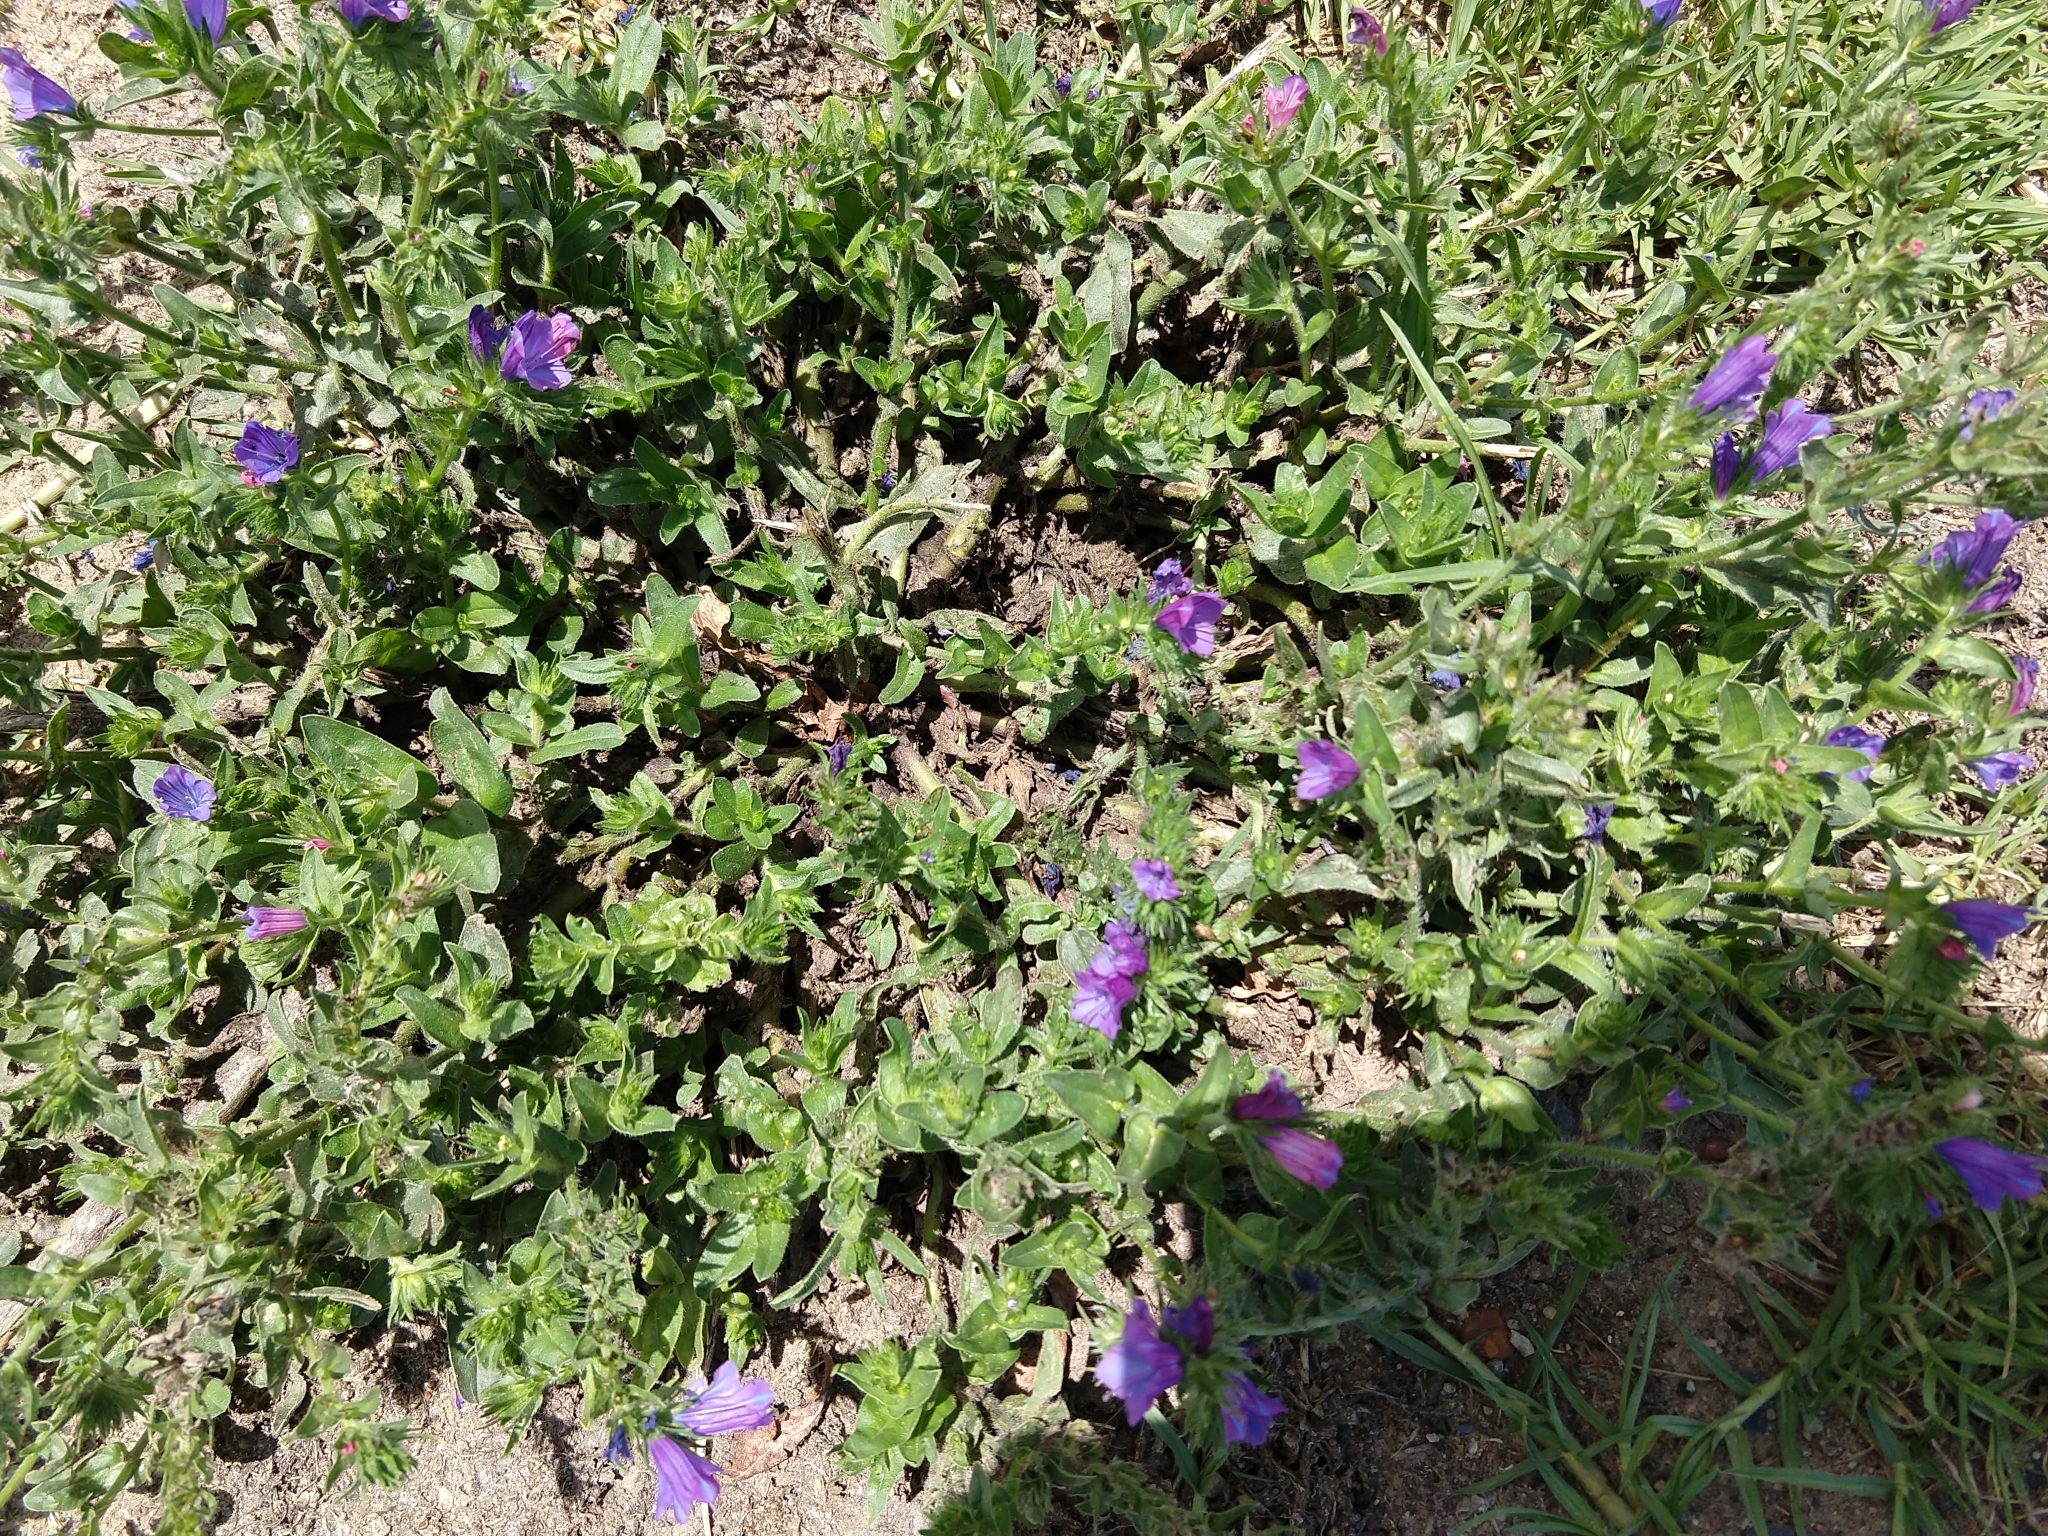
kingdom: Plantae
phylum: Tracheophyta
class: Magnoliopsida
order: Boraginales
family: Boraginaceae
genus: Echium
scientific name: Echium plantagineum
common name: Purple viper's-bugloss
